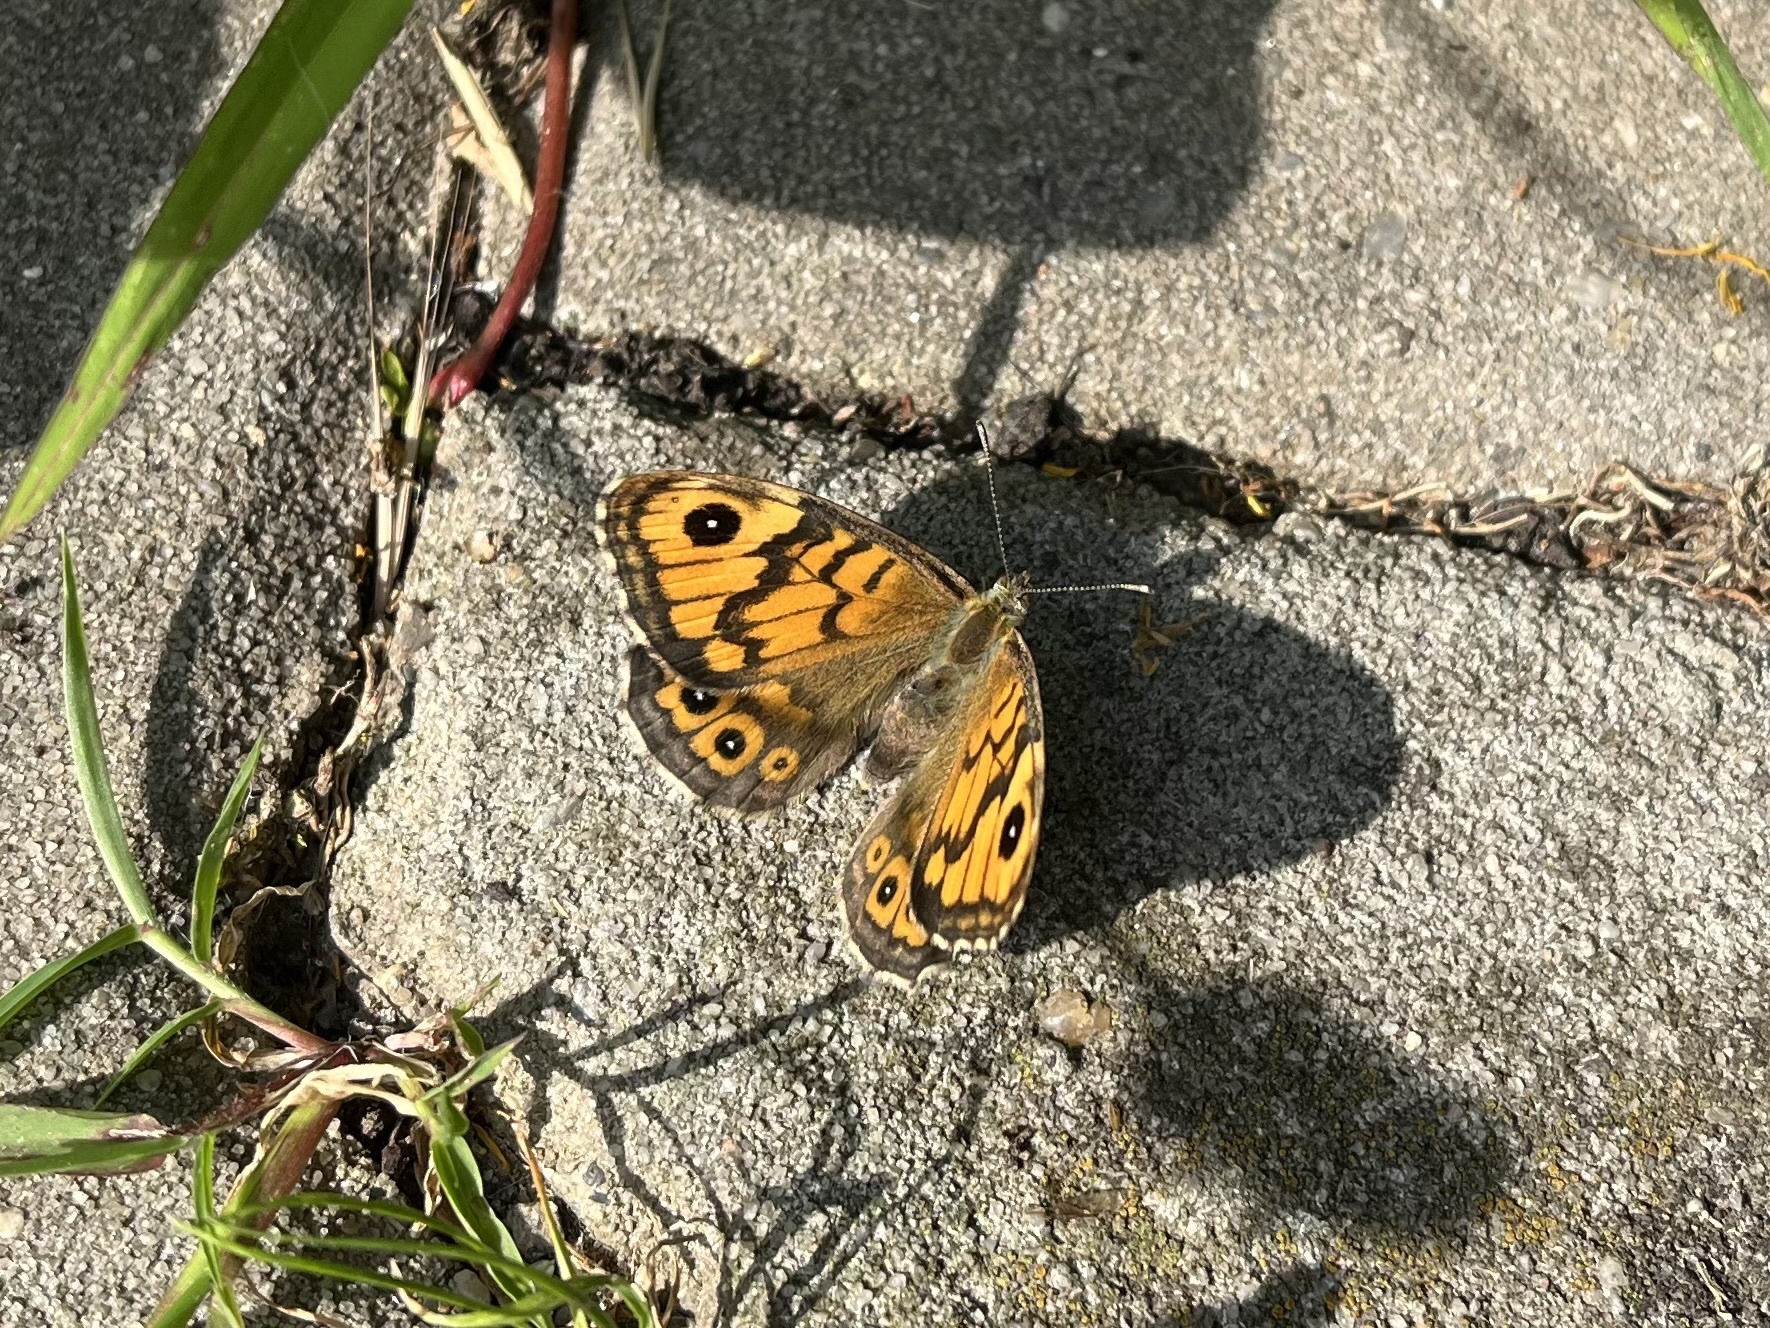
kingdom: Animalia
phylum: Arthropoda
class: Insecta
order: Lepidoptera
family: Nymphalidae
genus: Pararge
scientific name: Pararge Lasiommata megera
